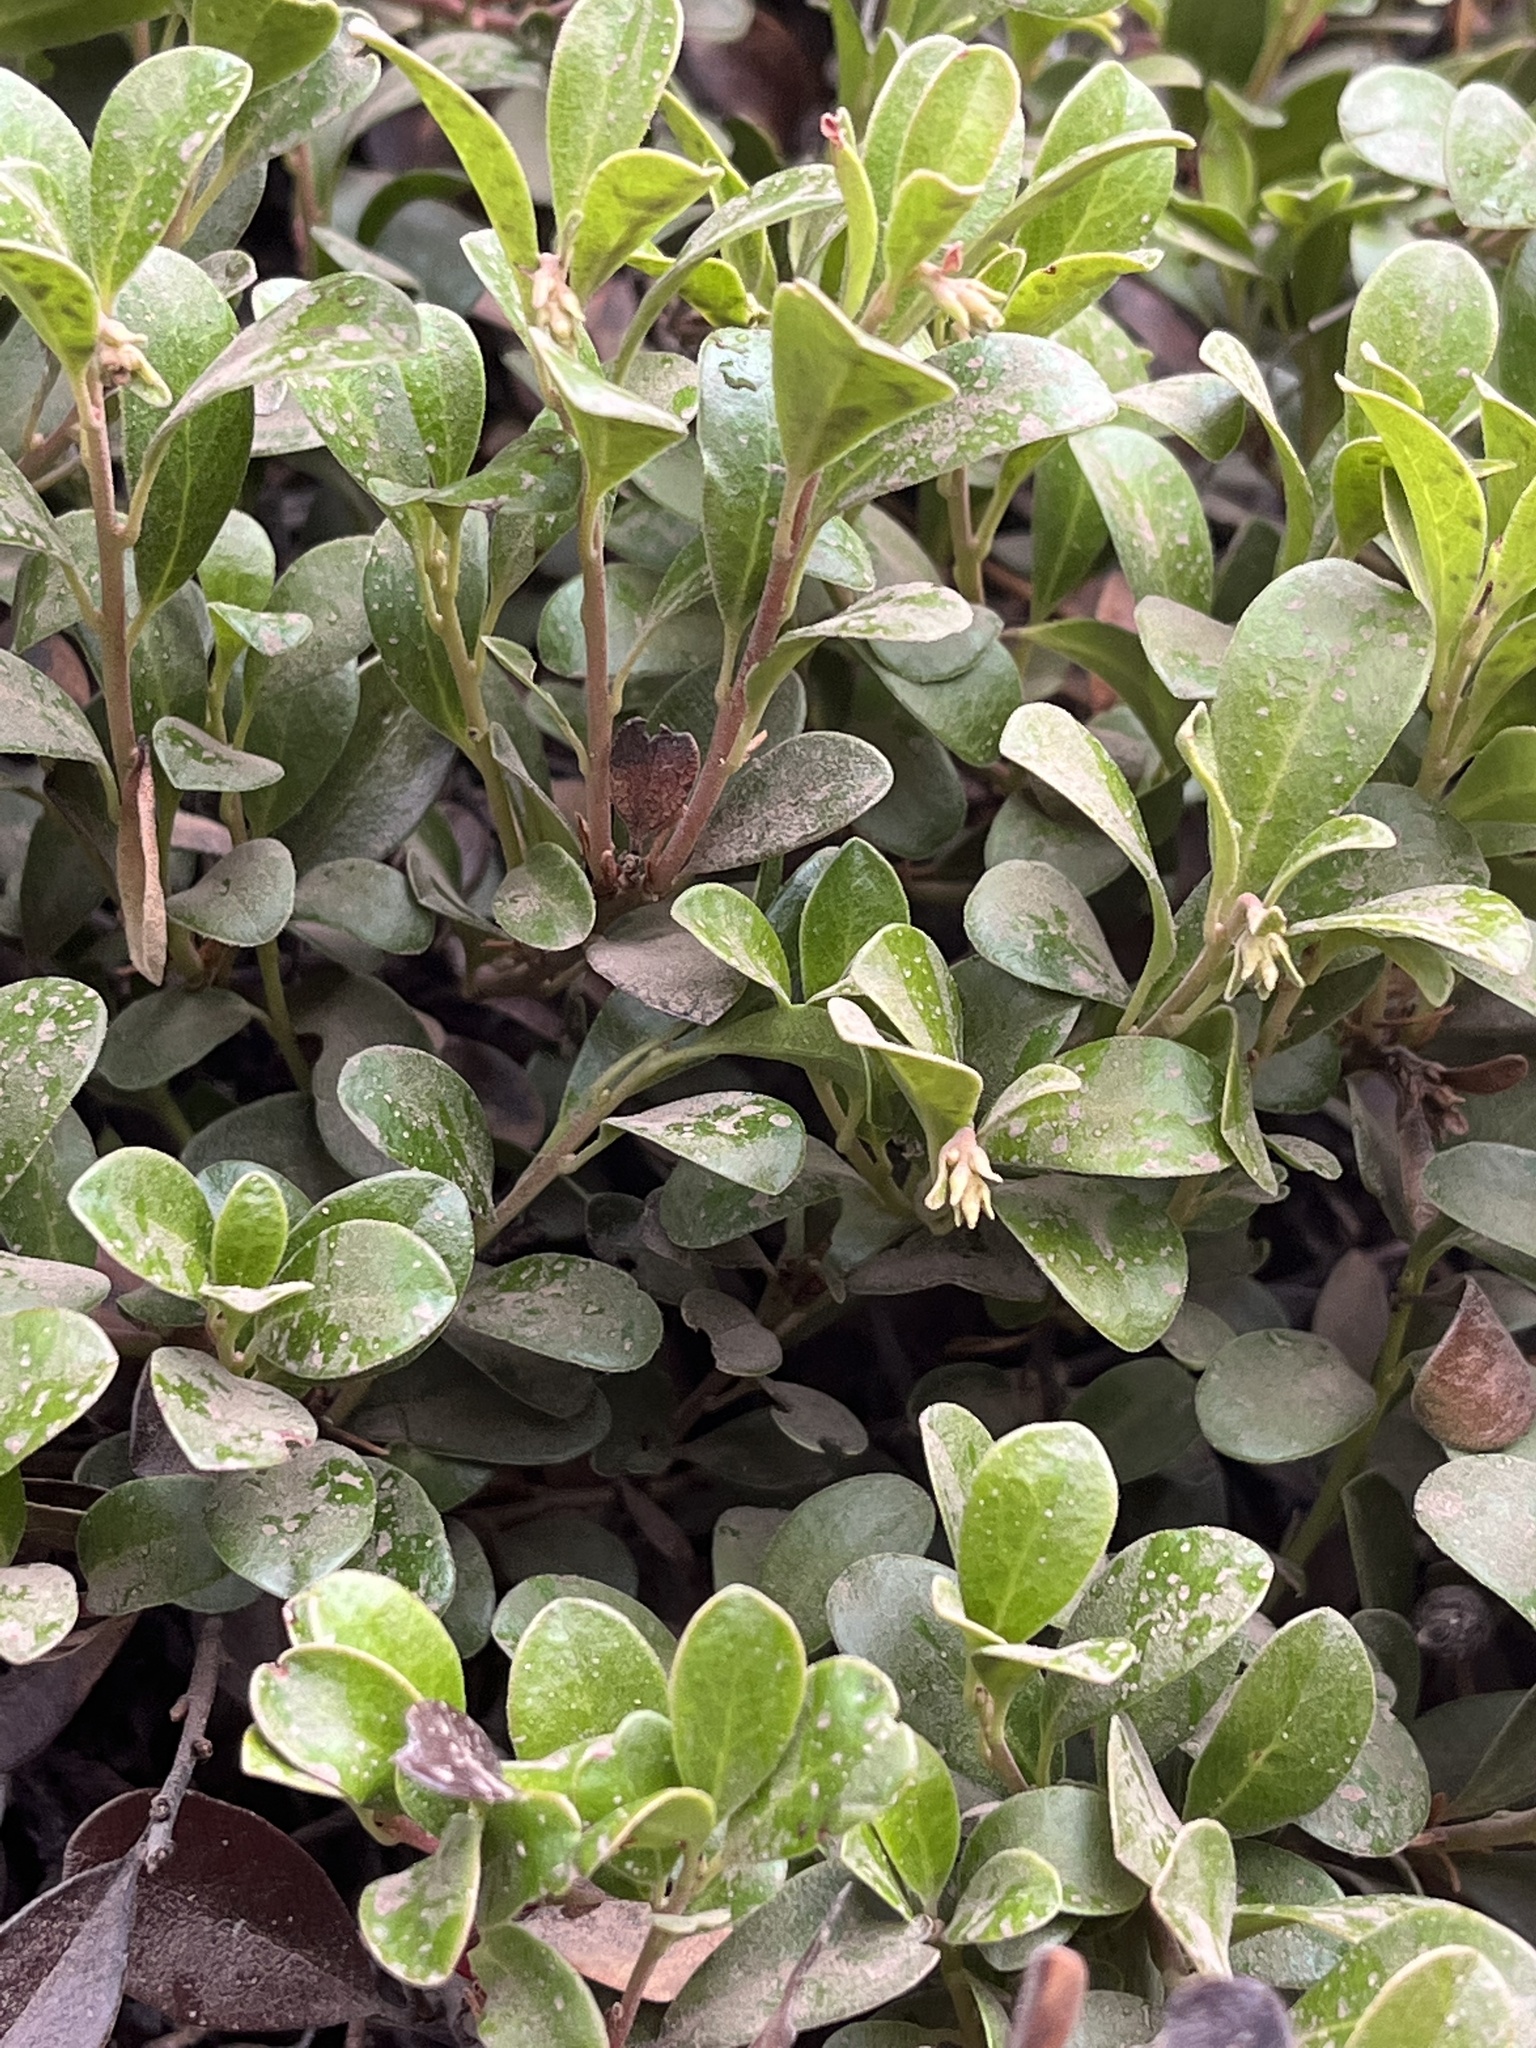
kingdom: Plantae
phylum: Tracheophyta
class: Magnoliopsida
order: Ericales
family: Ericaceae
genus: Arctostaphylos
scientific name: Arctostaphylos uva-ursi
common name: Bearberry
